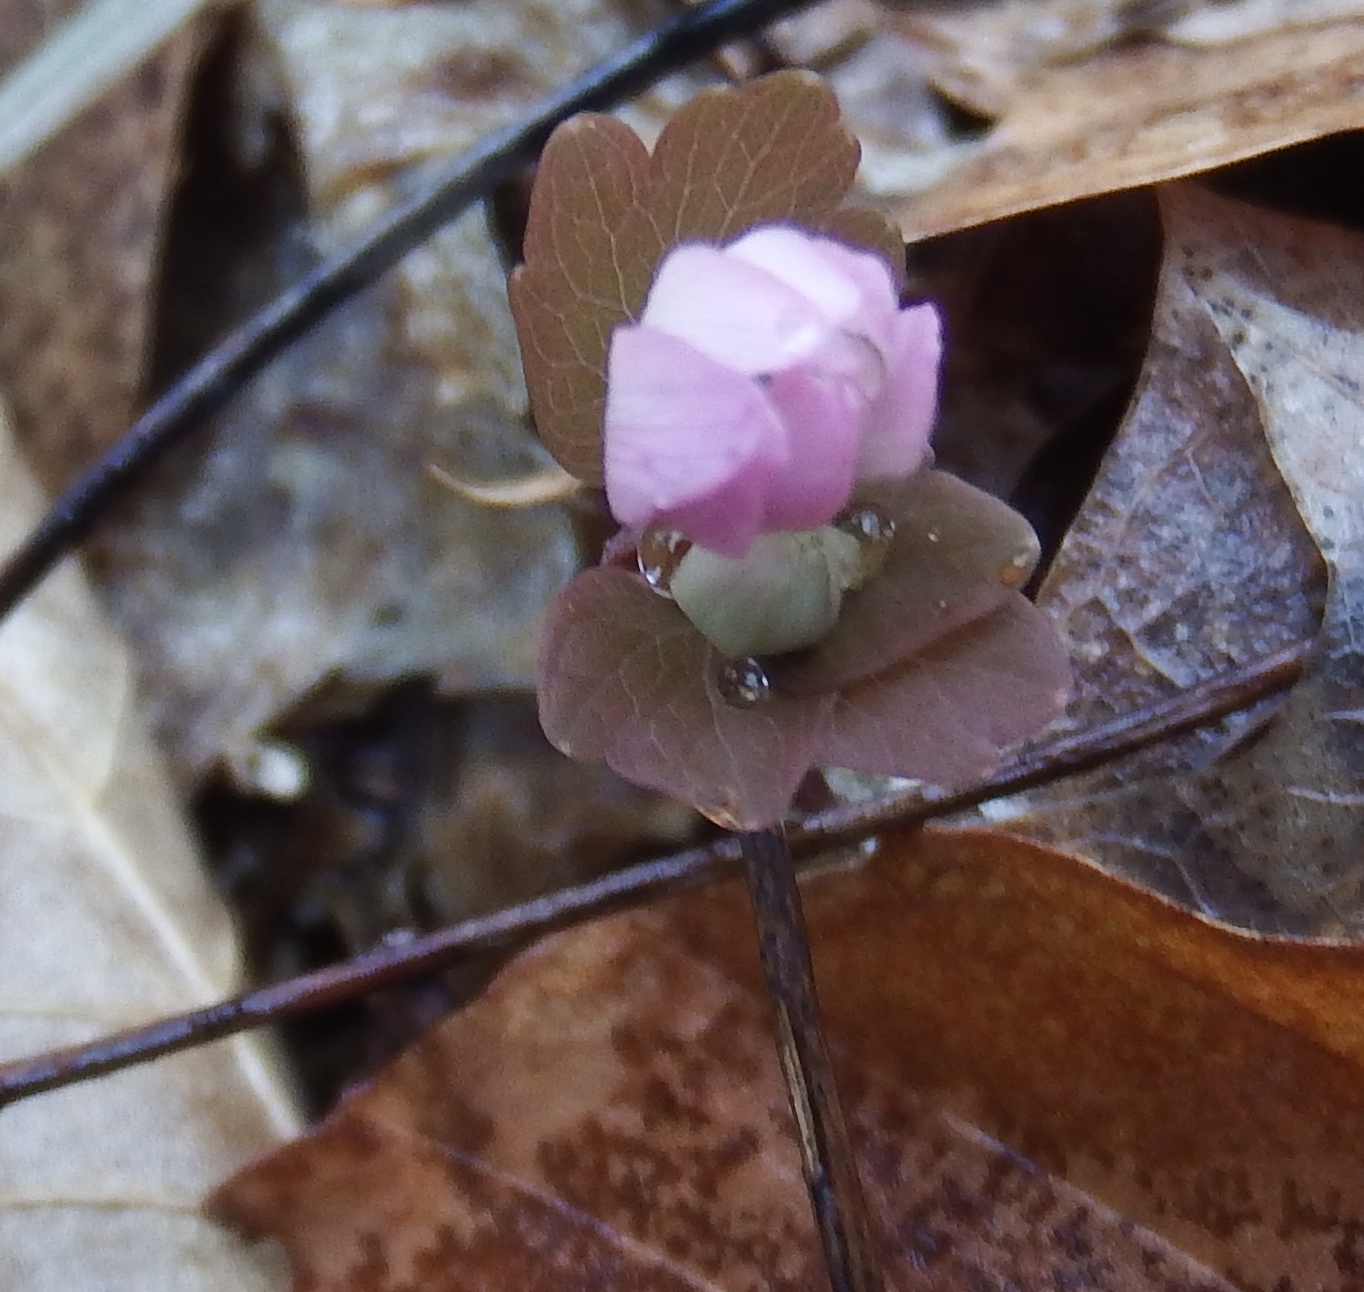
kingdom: Plantae
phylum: Tracheophyta
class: Magnoliopsida
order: Ranunculales
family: Ranunculaceae
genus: Thalictrum
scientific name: Thalictrum thalictroides
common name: Rue-anemone
